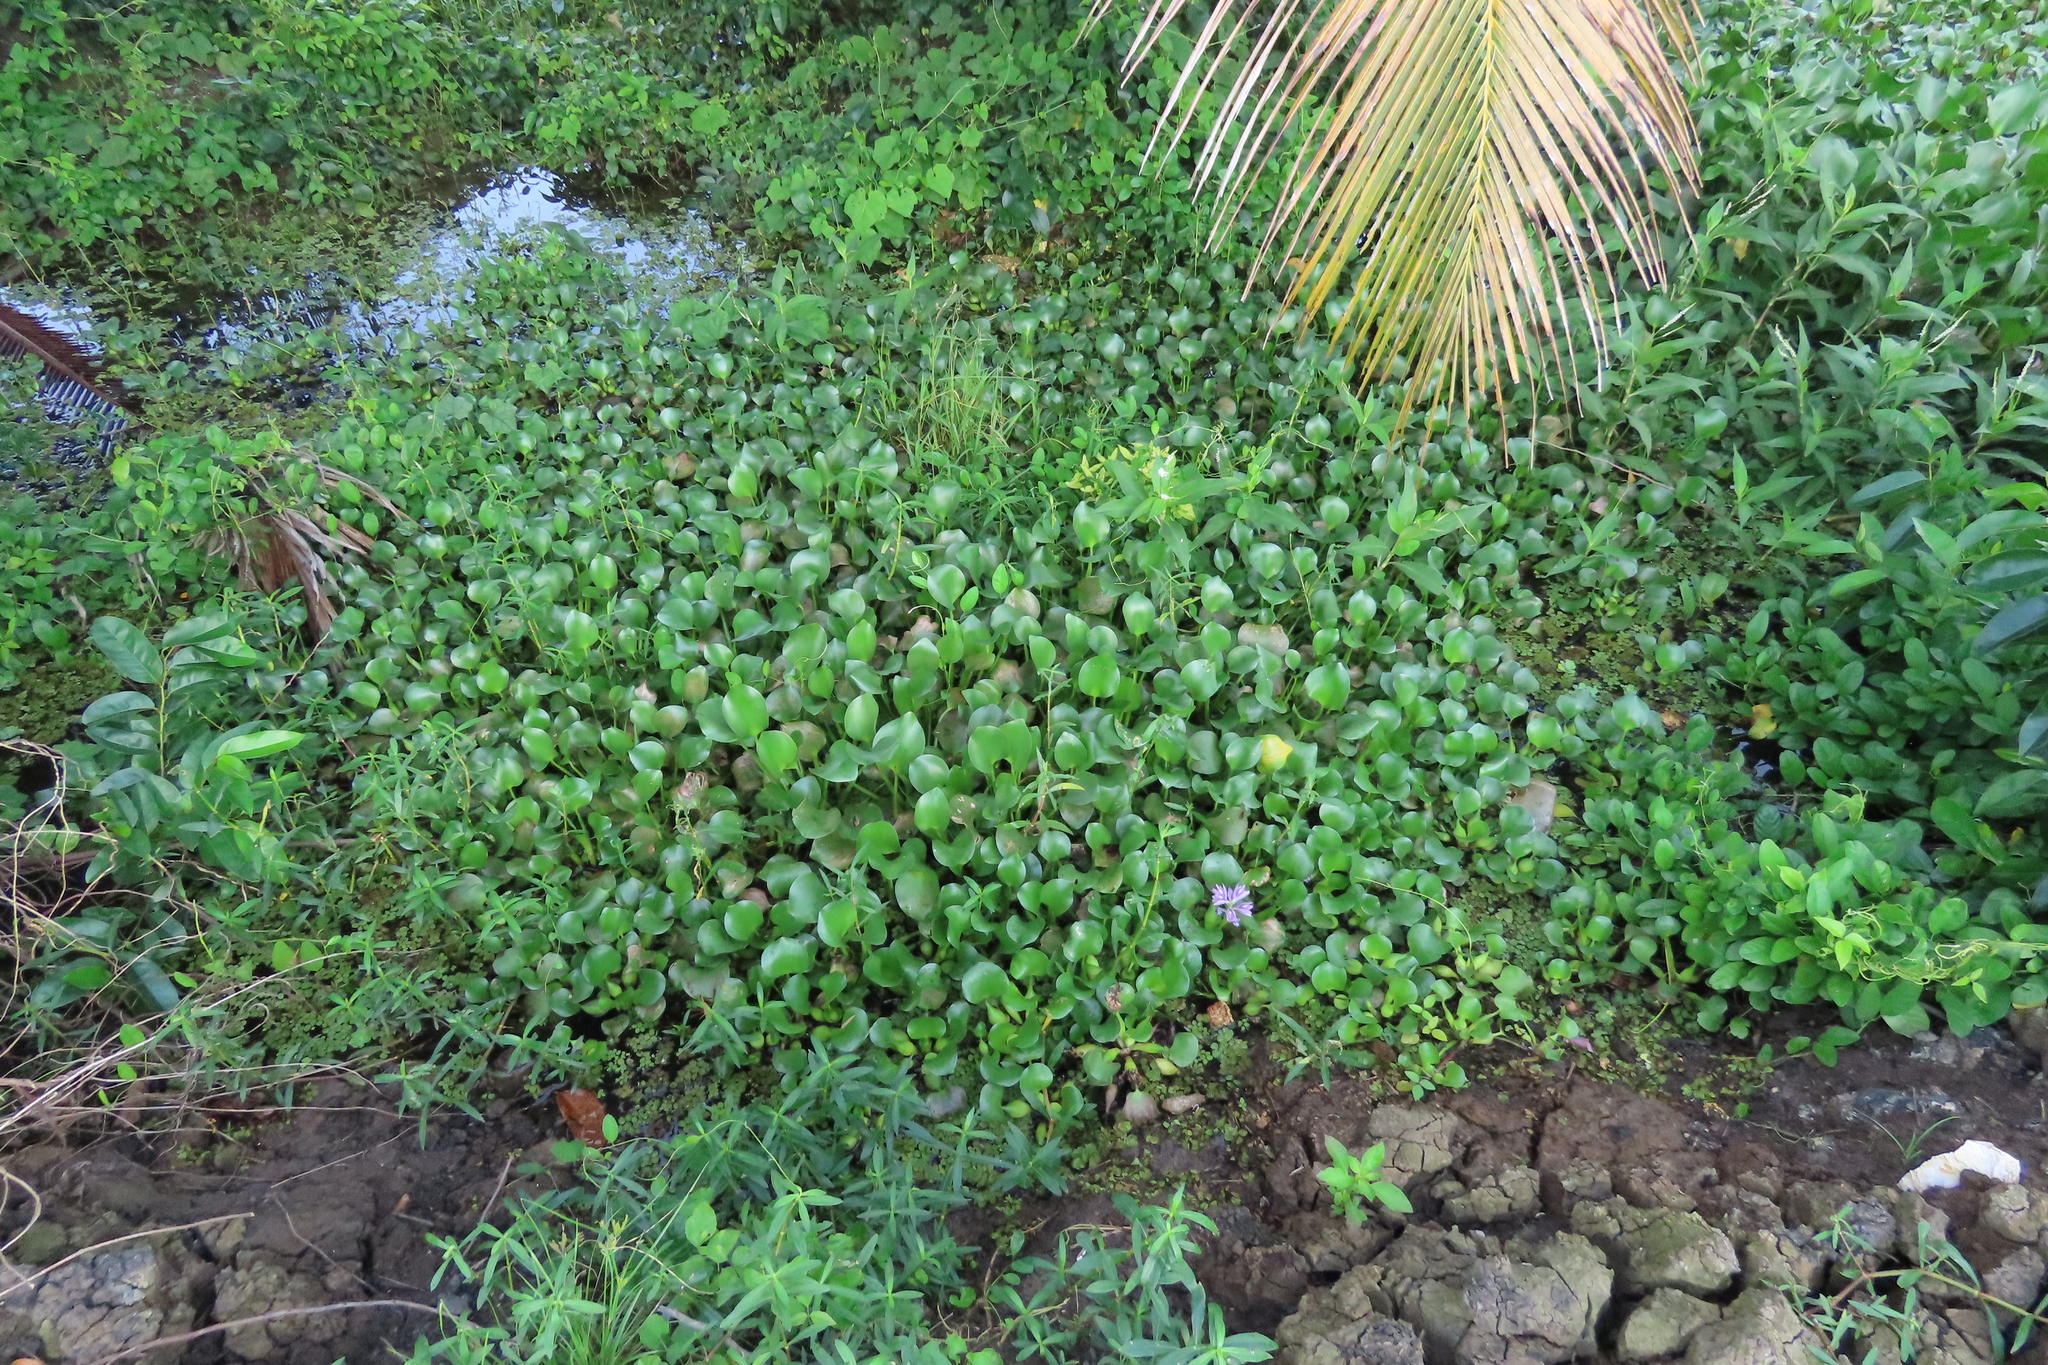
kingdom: Plantae
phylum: Tracheophyta
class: Liliopsida
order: Commelinales
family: Pontederiaceae
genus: Pontederia
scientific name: Pontederia crassipes
